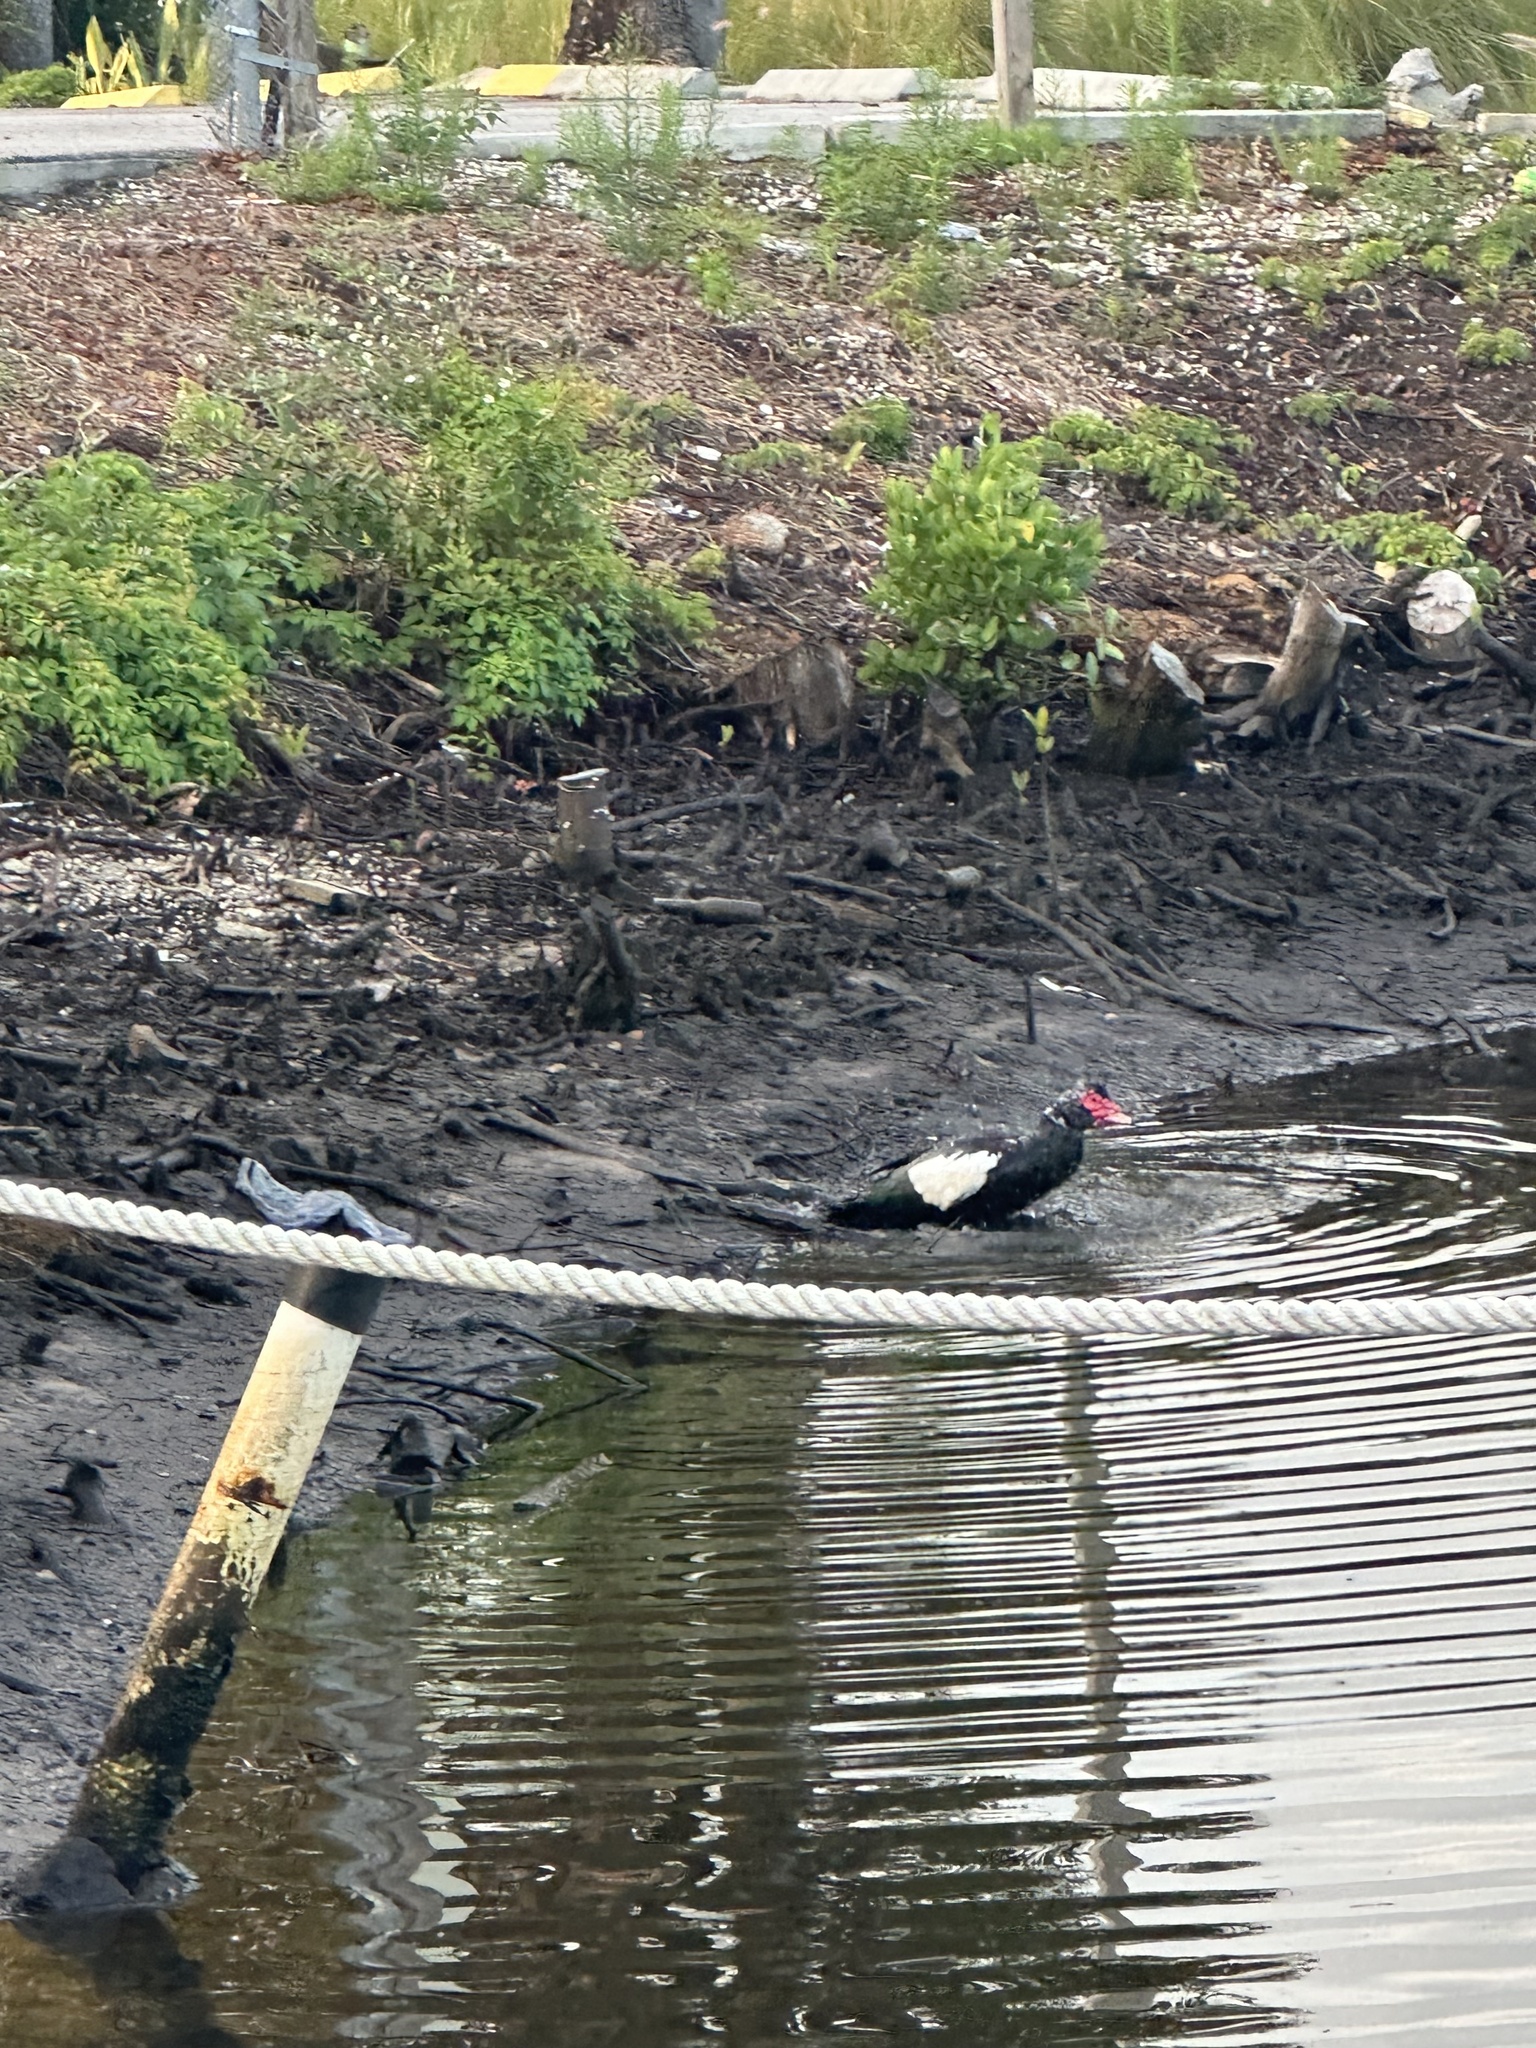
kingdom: Animalia
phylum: Chordata
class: Aves
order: Anseriformes
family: Anatidae
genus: Cairina
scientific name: Cairina moschata
